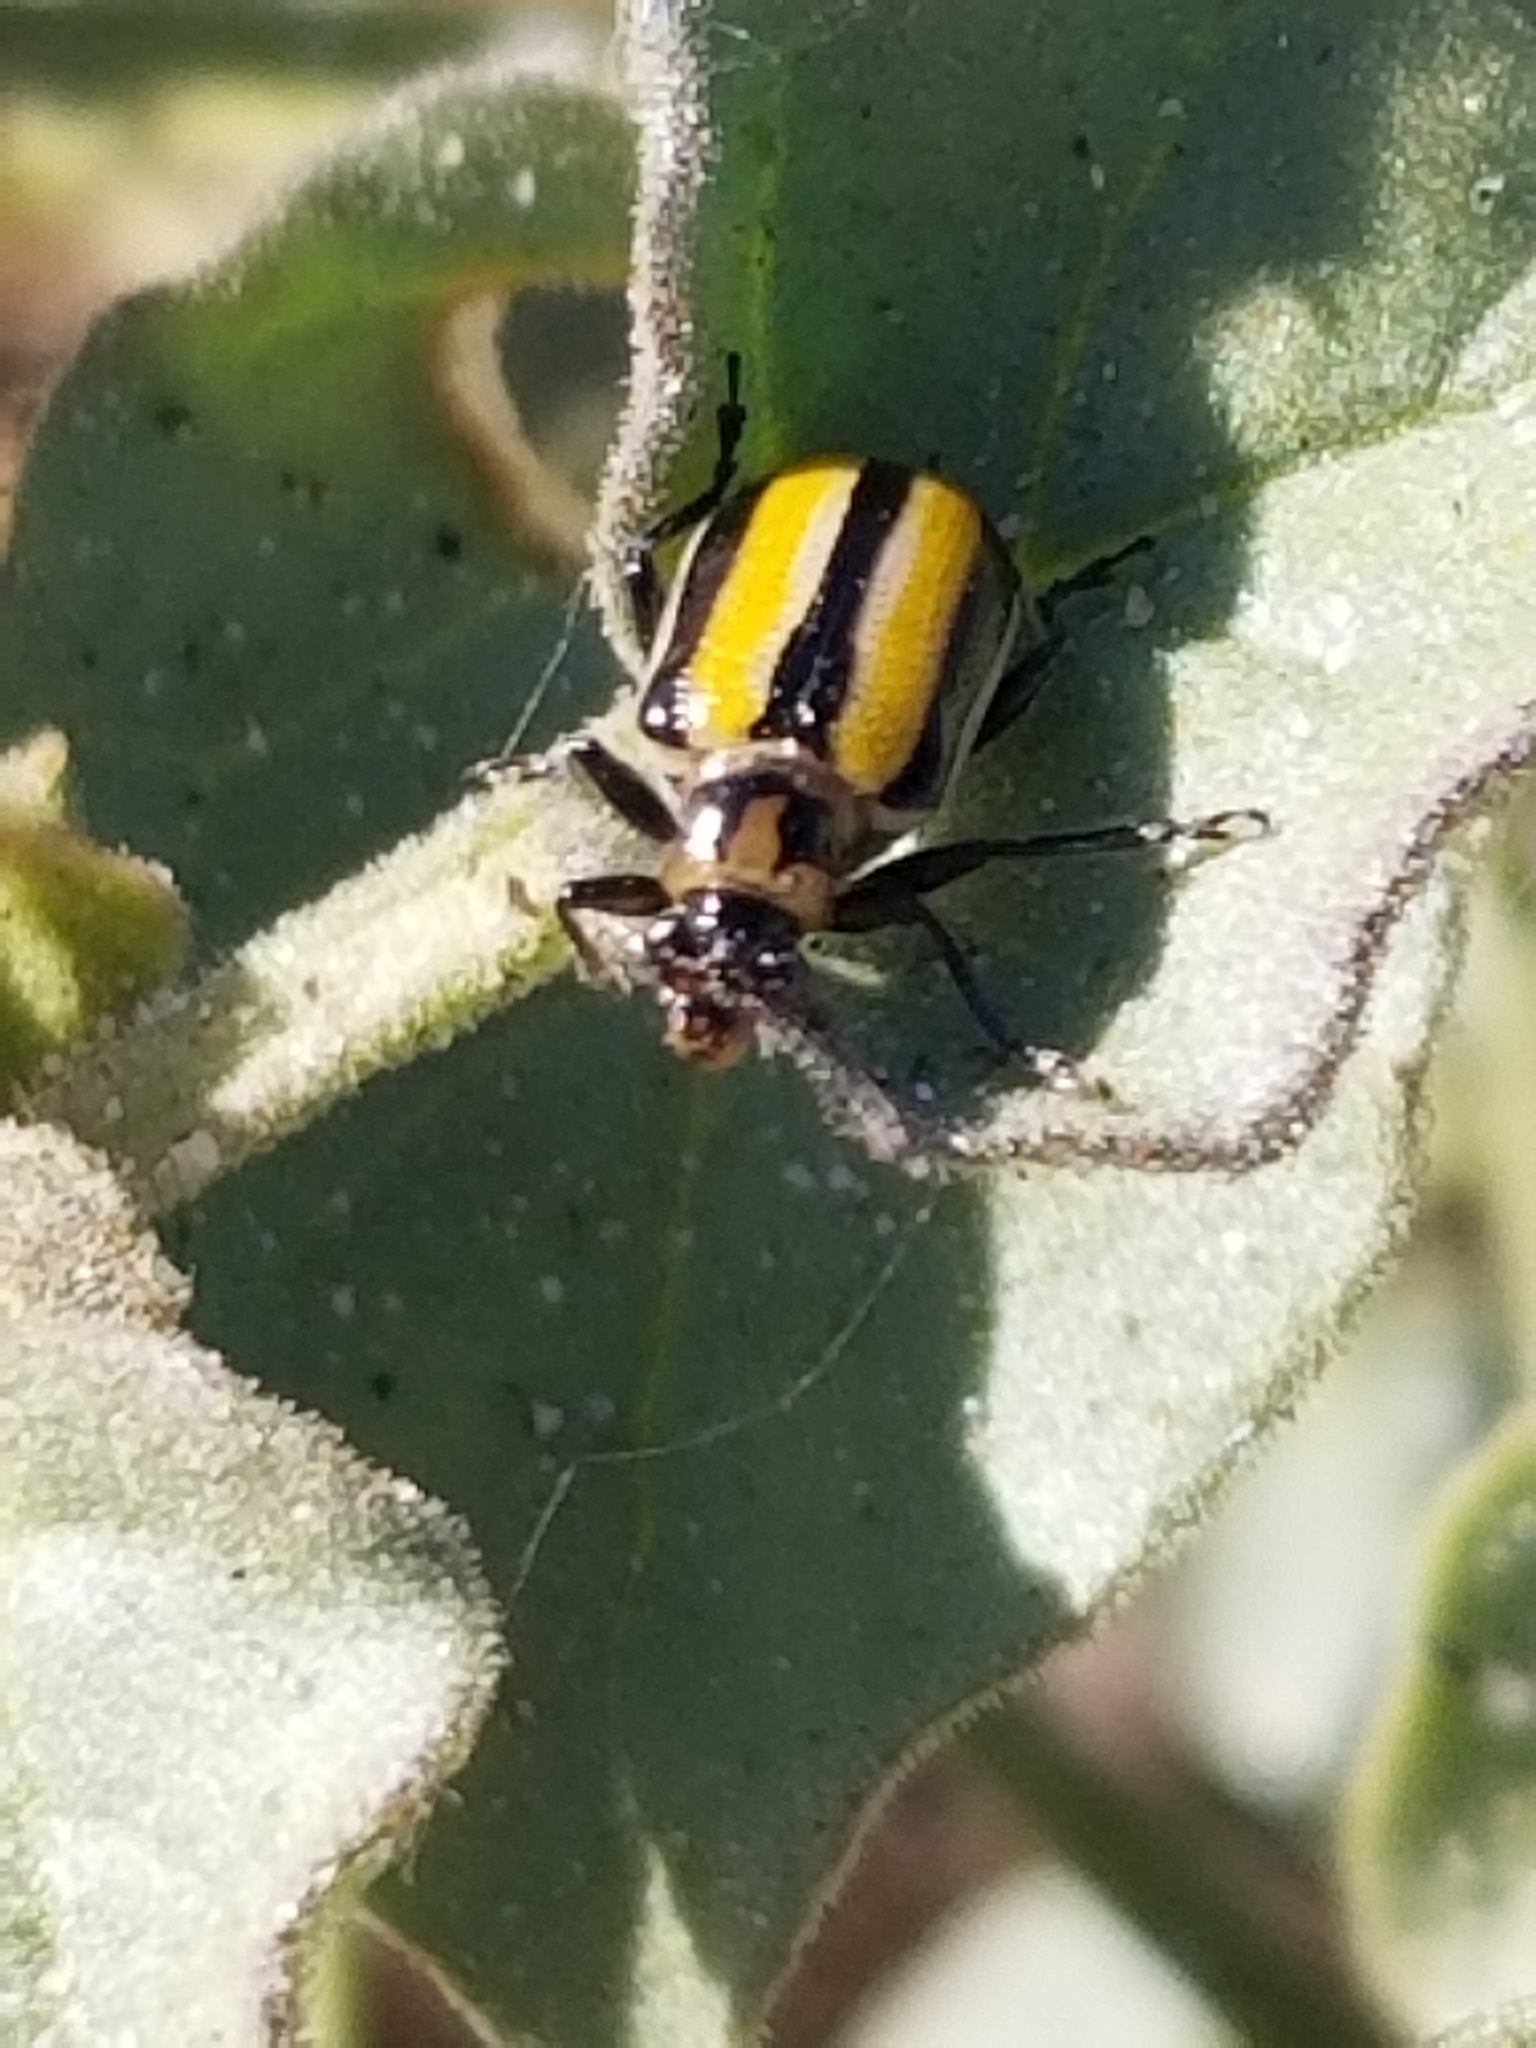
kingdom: Animalia
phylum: Arthropoda
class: Insecta
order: Coleoptera
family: Chrysomelidae
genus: Lema
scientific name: Lema daturaphila
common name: Leaf beetle
